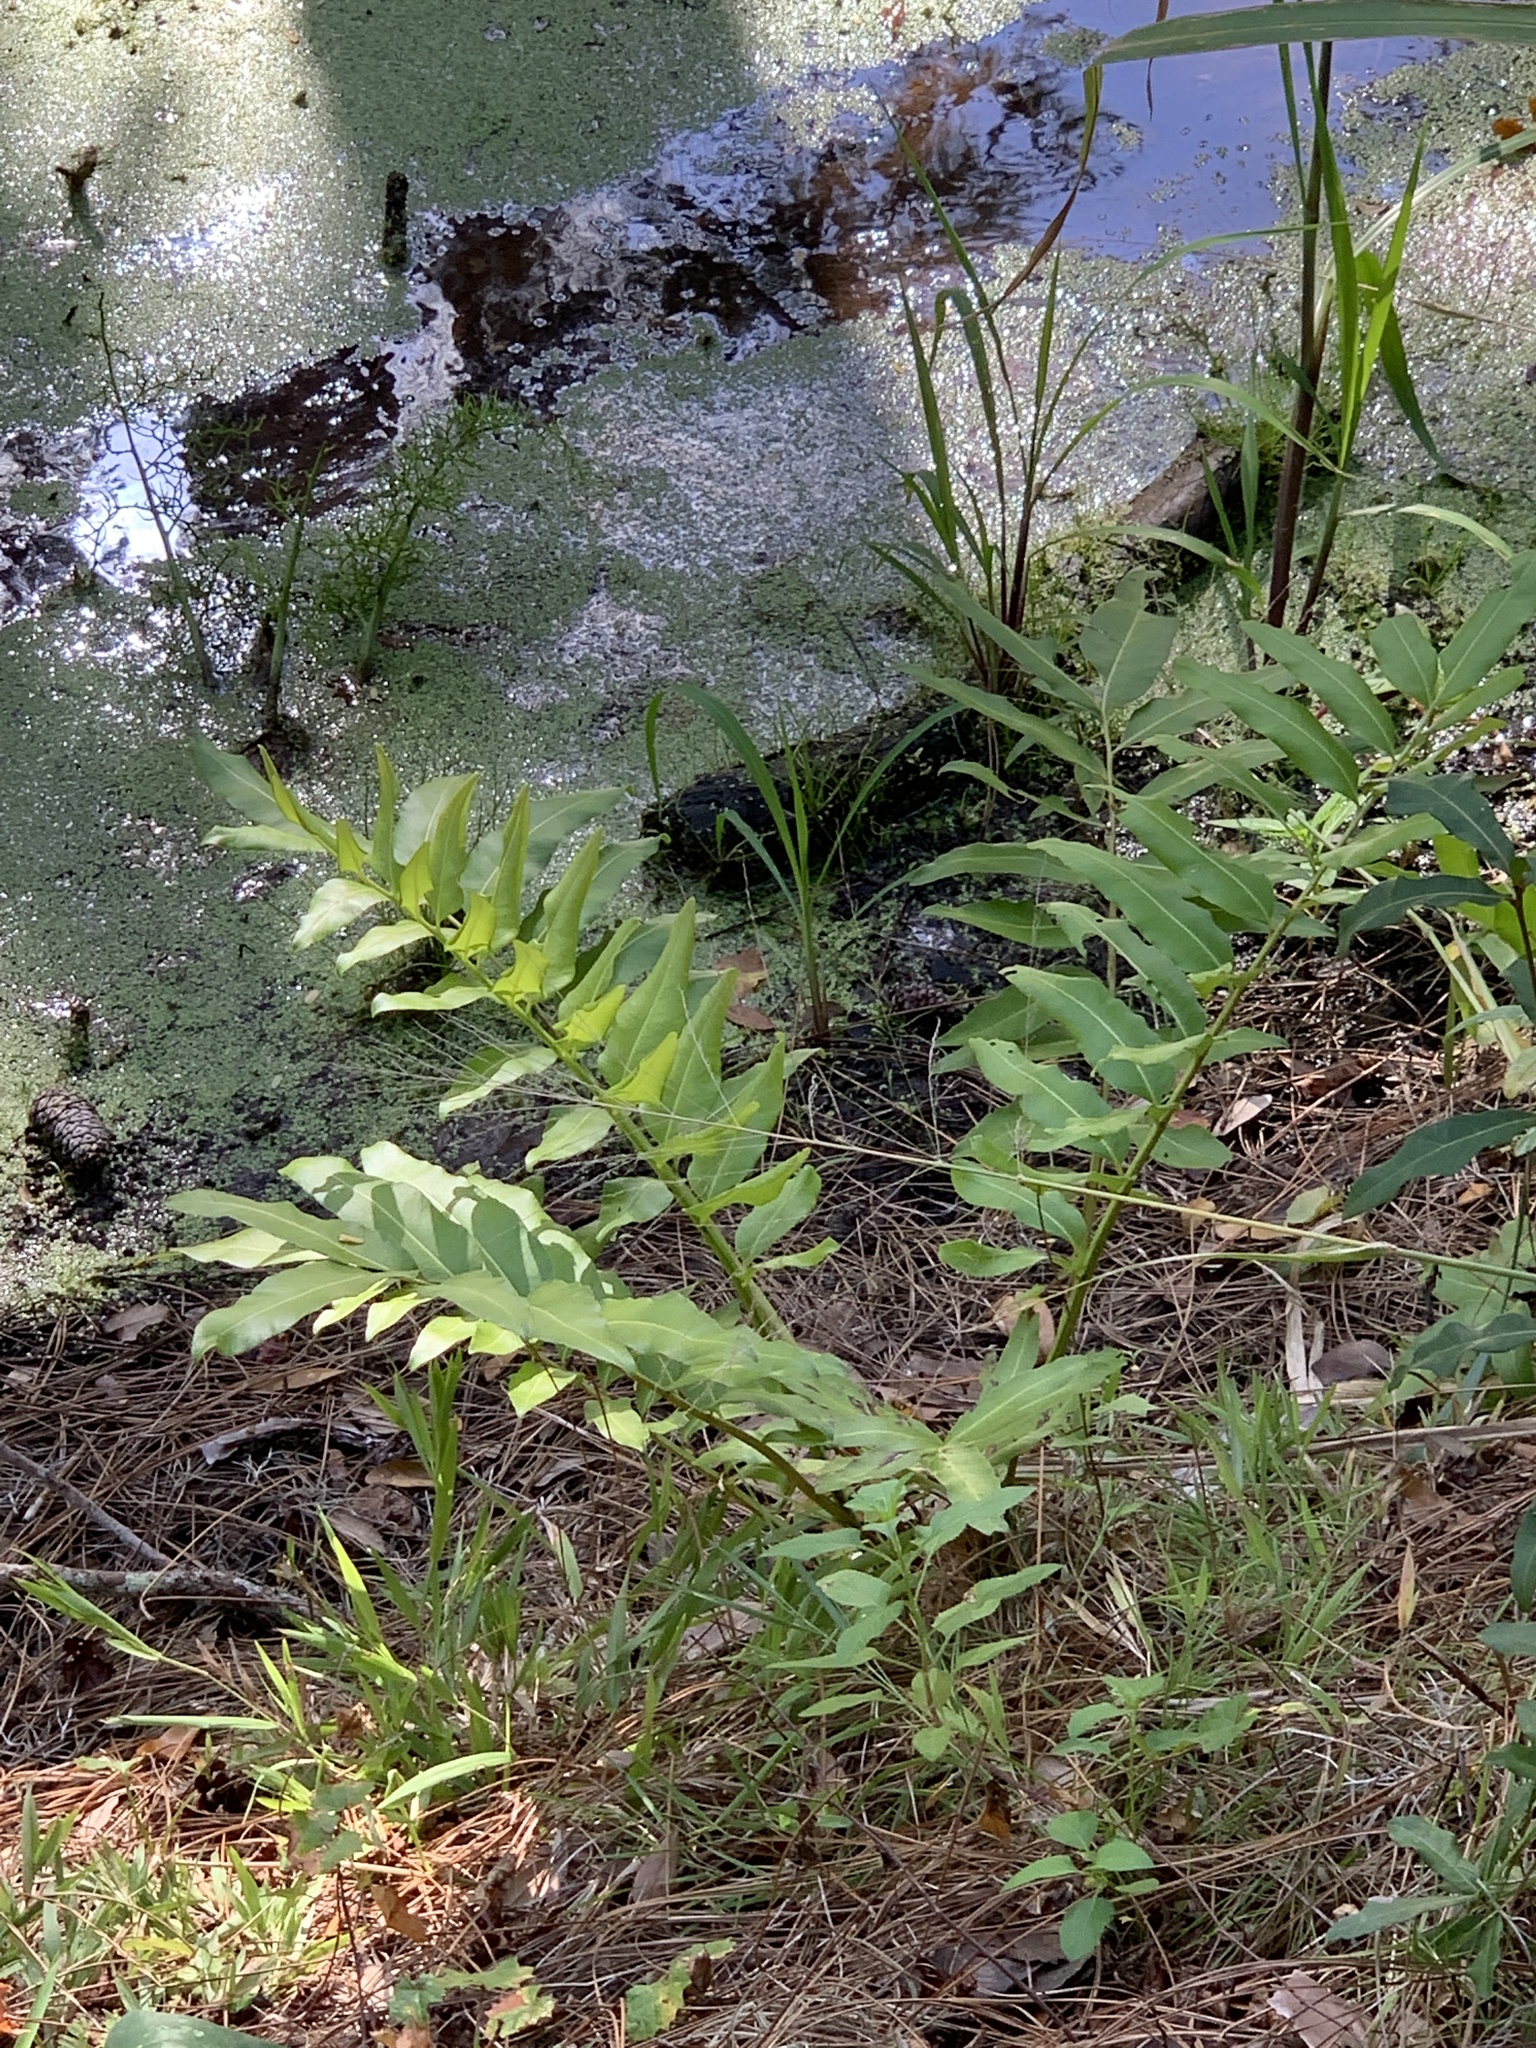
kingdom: Plantae
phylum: Tracheophyta
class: Polypodiopsida
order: Polypodiales
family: Pteridaceae
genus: Acrostichum
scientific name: Acrostichum danaeifolium
